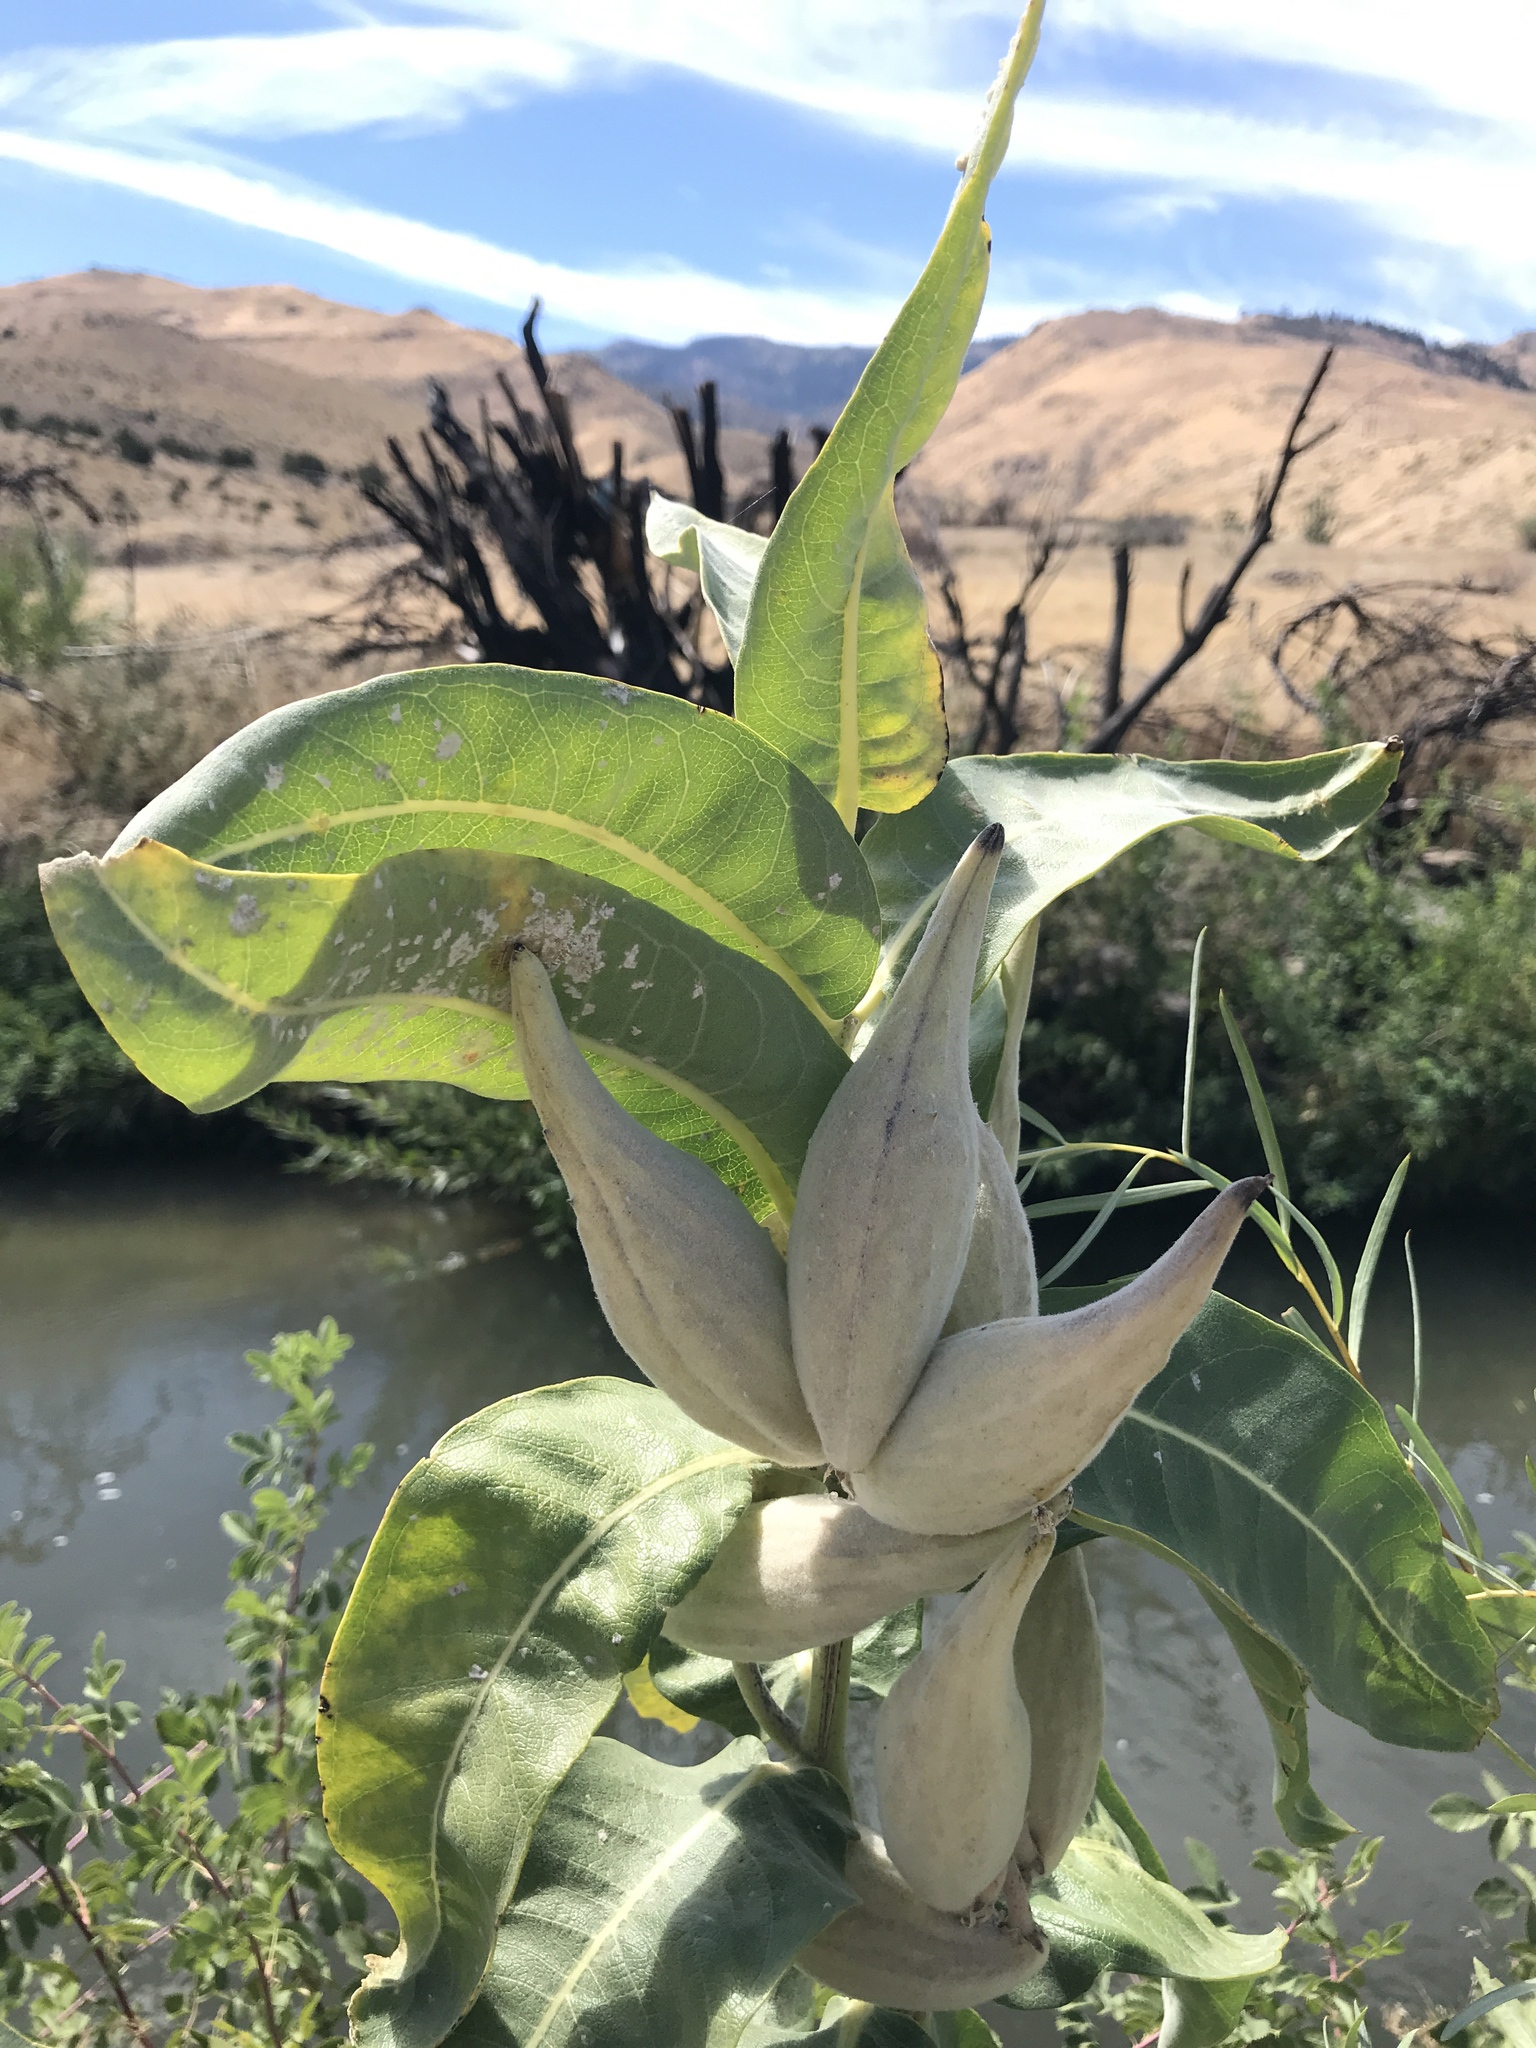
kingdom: Plantae
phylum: Tracheophyta
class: Magnoliopsida
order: Gentianales
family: Apocynaceae
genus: Asclepias
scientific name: Asclepias speciosa
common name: Showy milkweed
